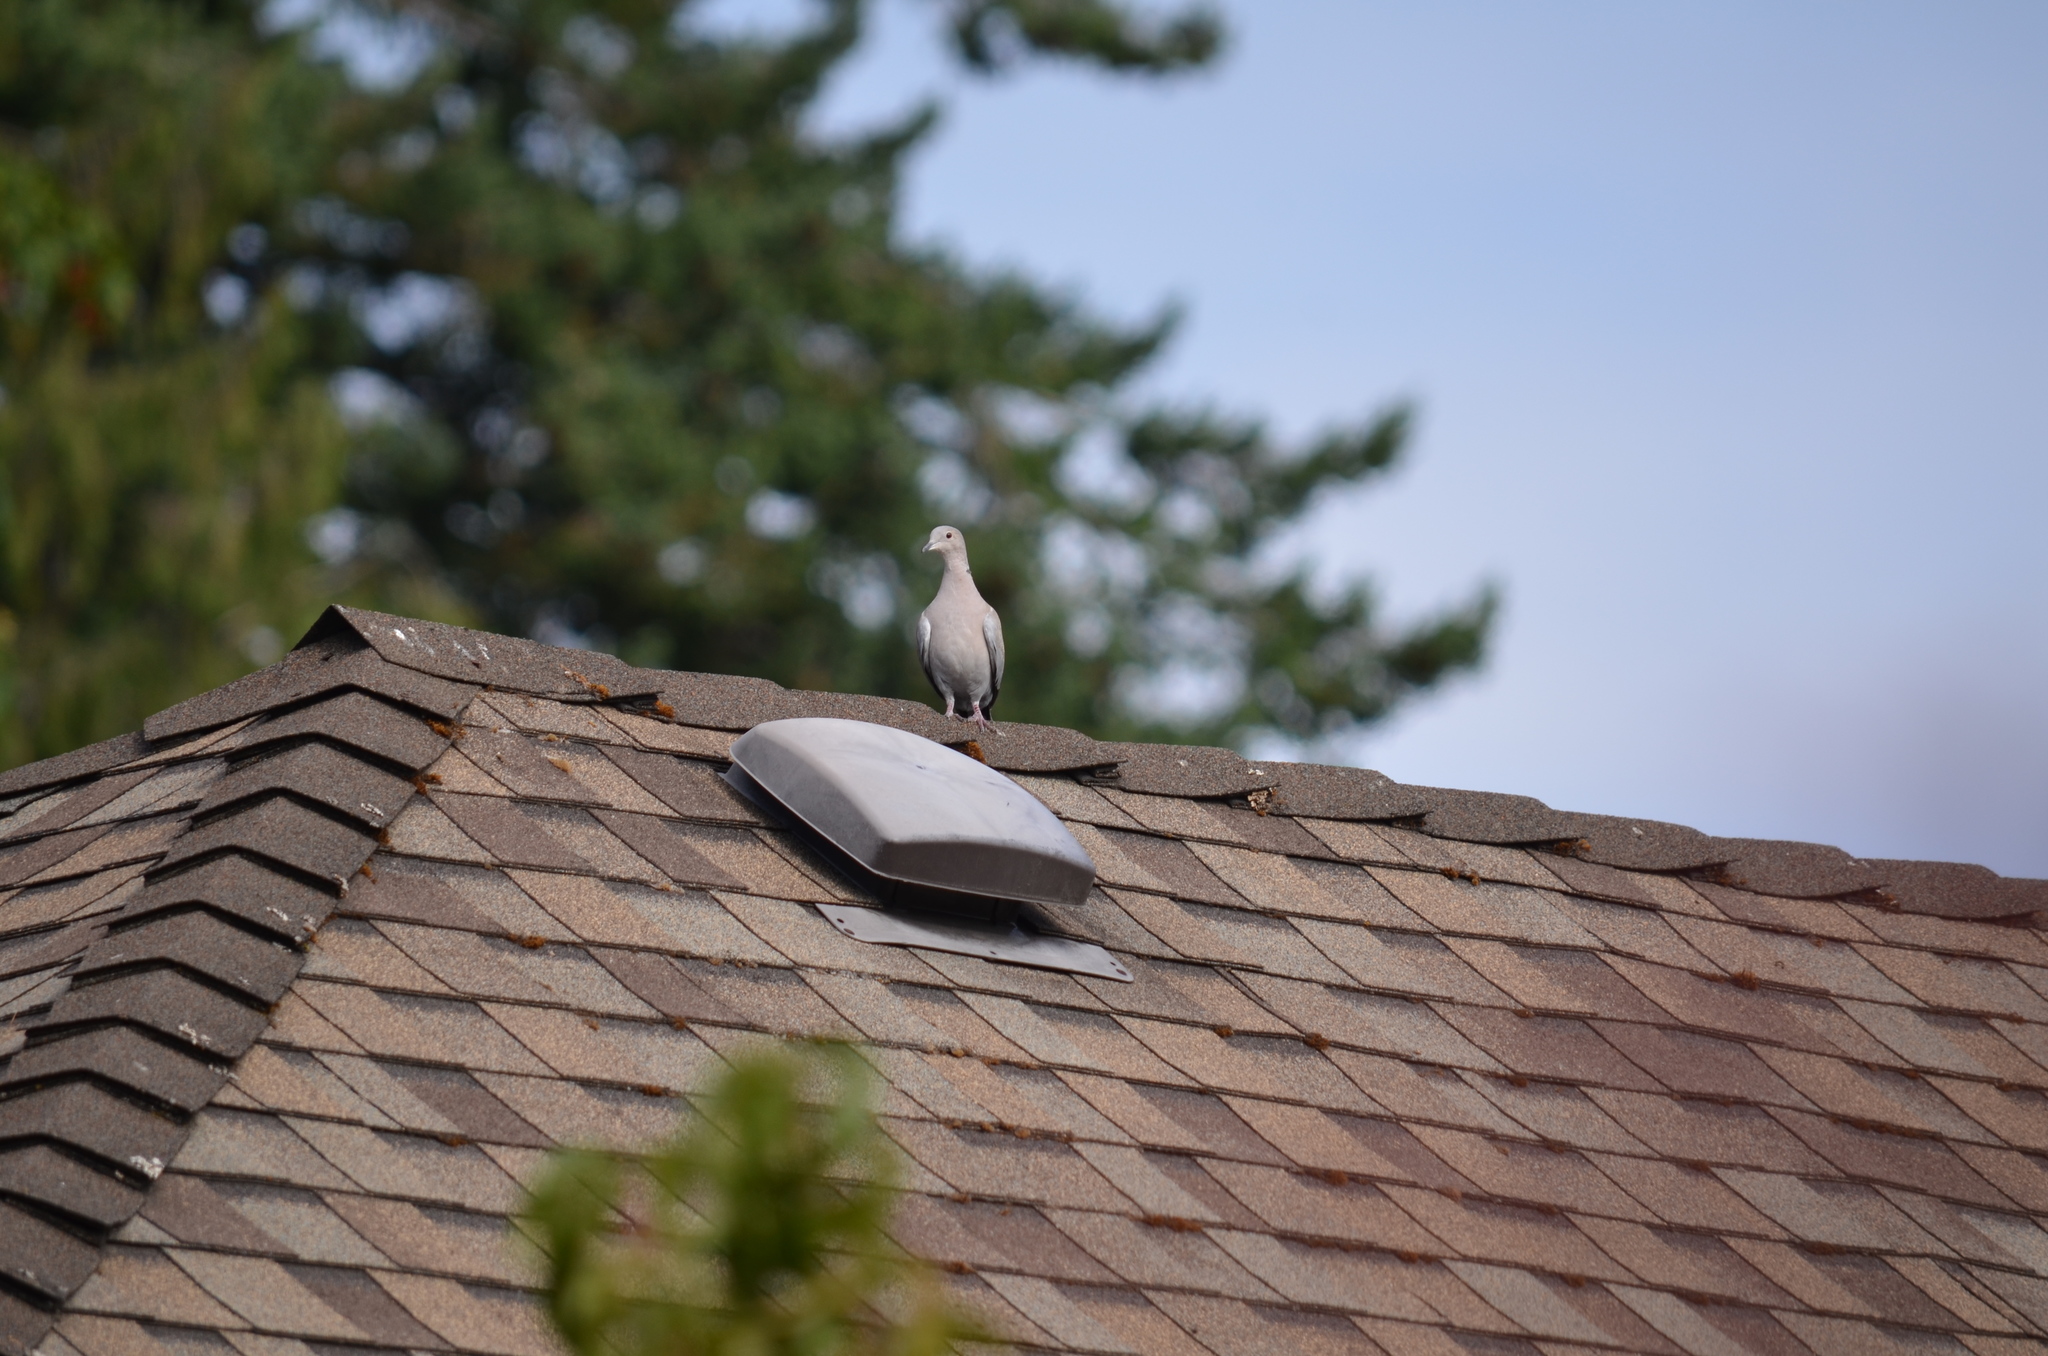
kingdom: Animalia
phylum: Chordata
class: Aves
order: Columbiformes
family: Columbidae
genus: Streptopelia
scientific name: Streptopelia decaocto
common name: Eurasian collared dove
